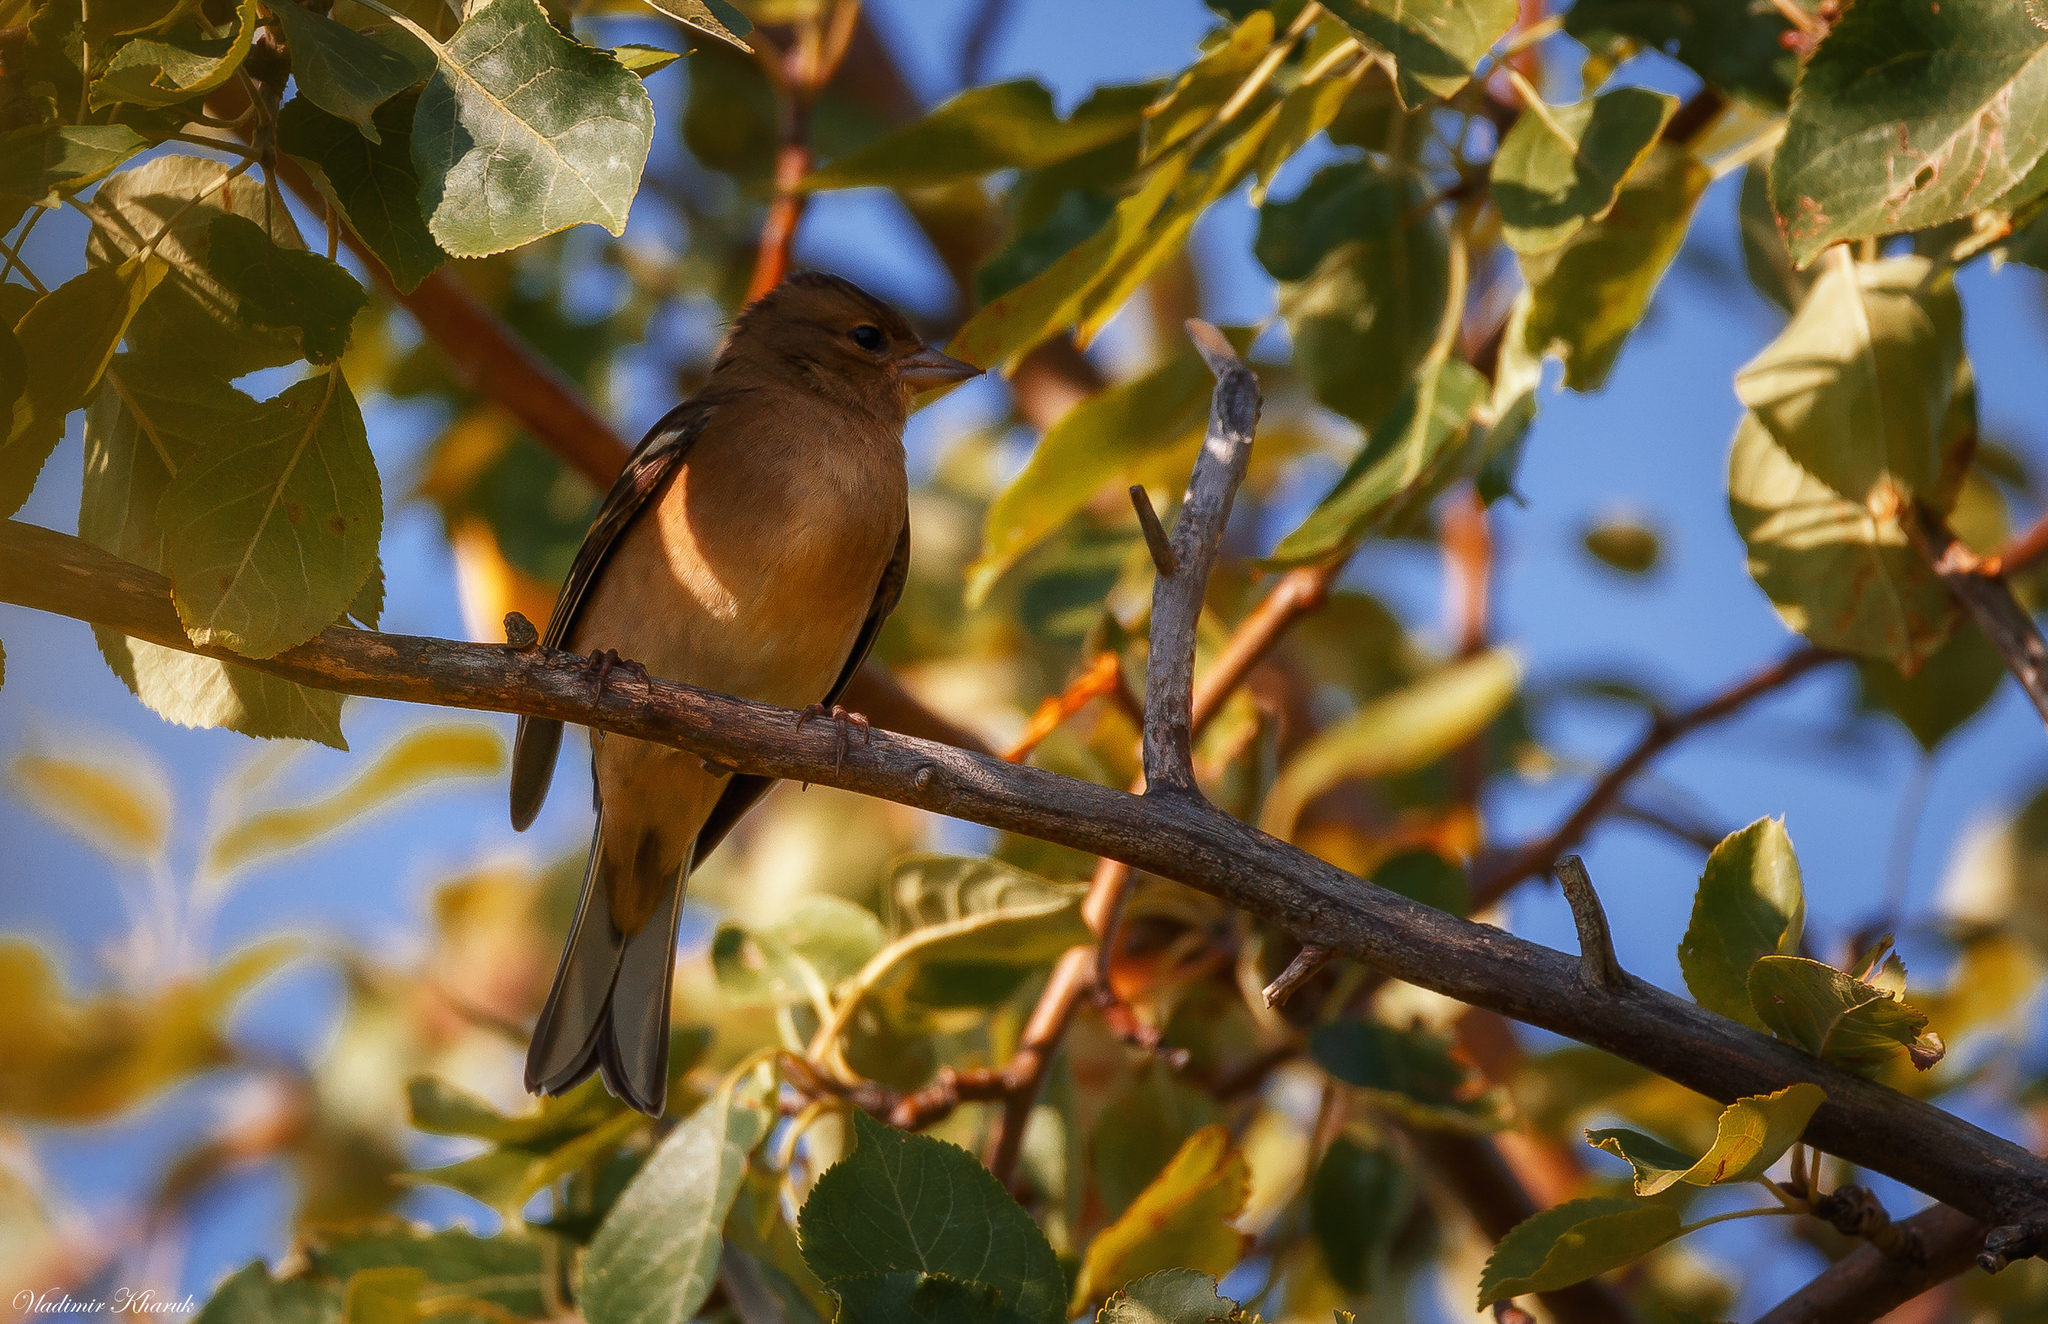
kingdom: Animalia
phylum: Chordata
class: Aves
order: Passeriformes
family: Fringillidae
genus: Fringilla
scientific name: Fringilla coelebs
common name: Common chaffinch
